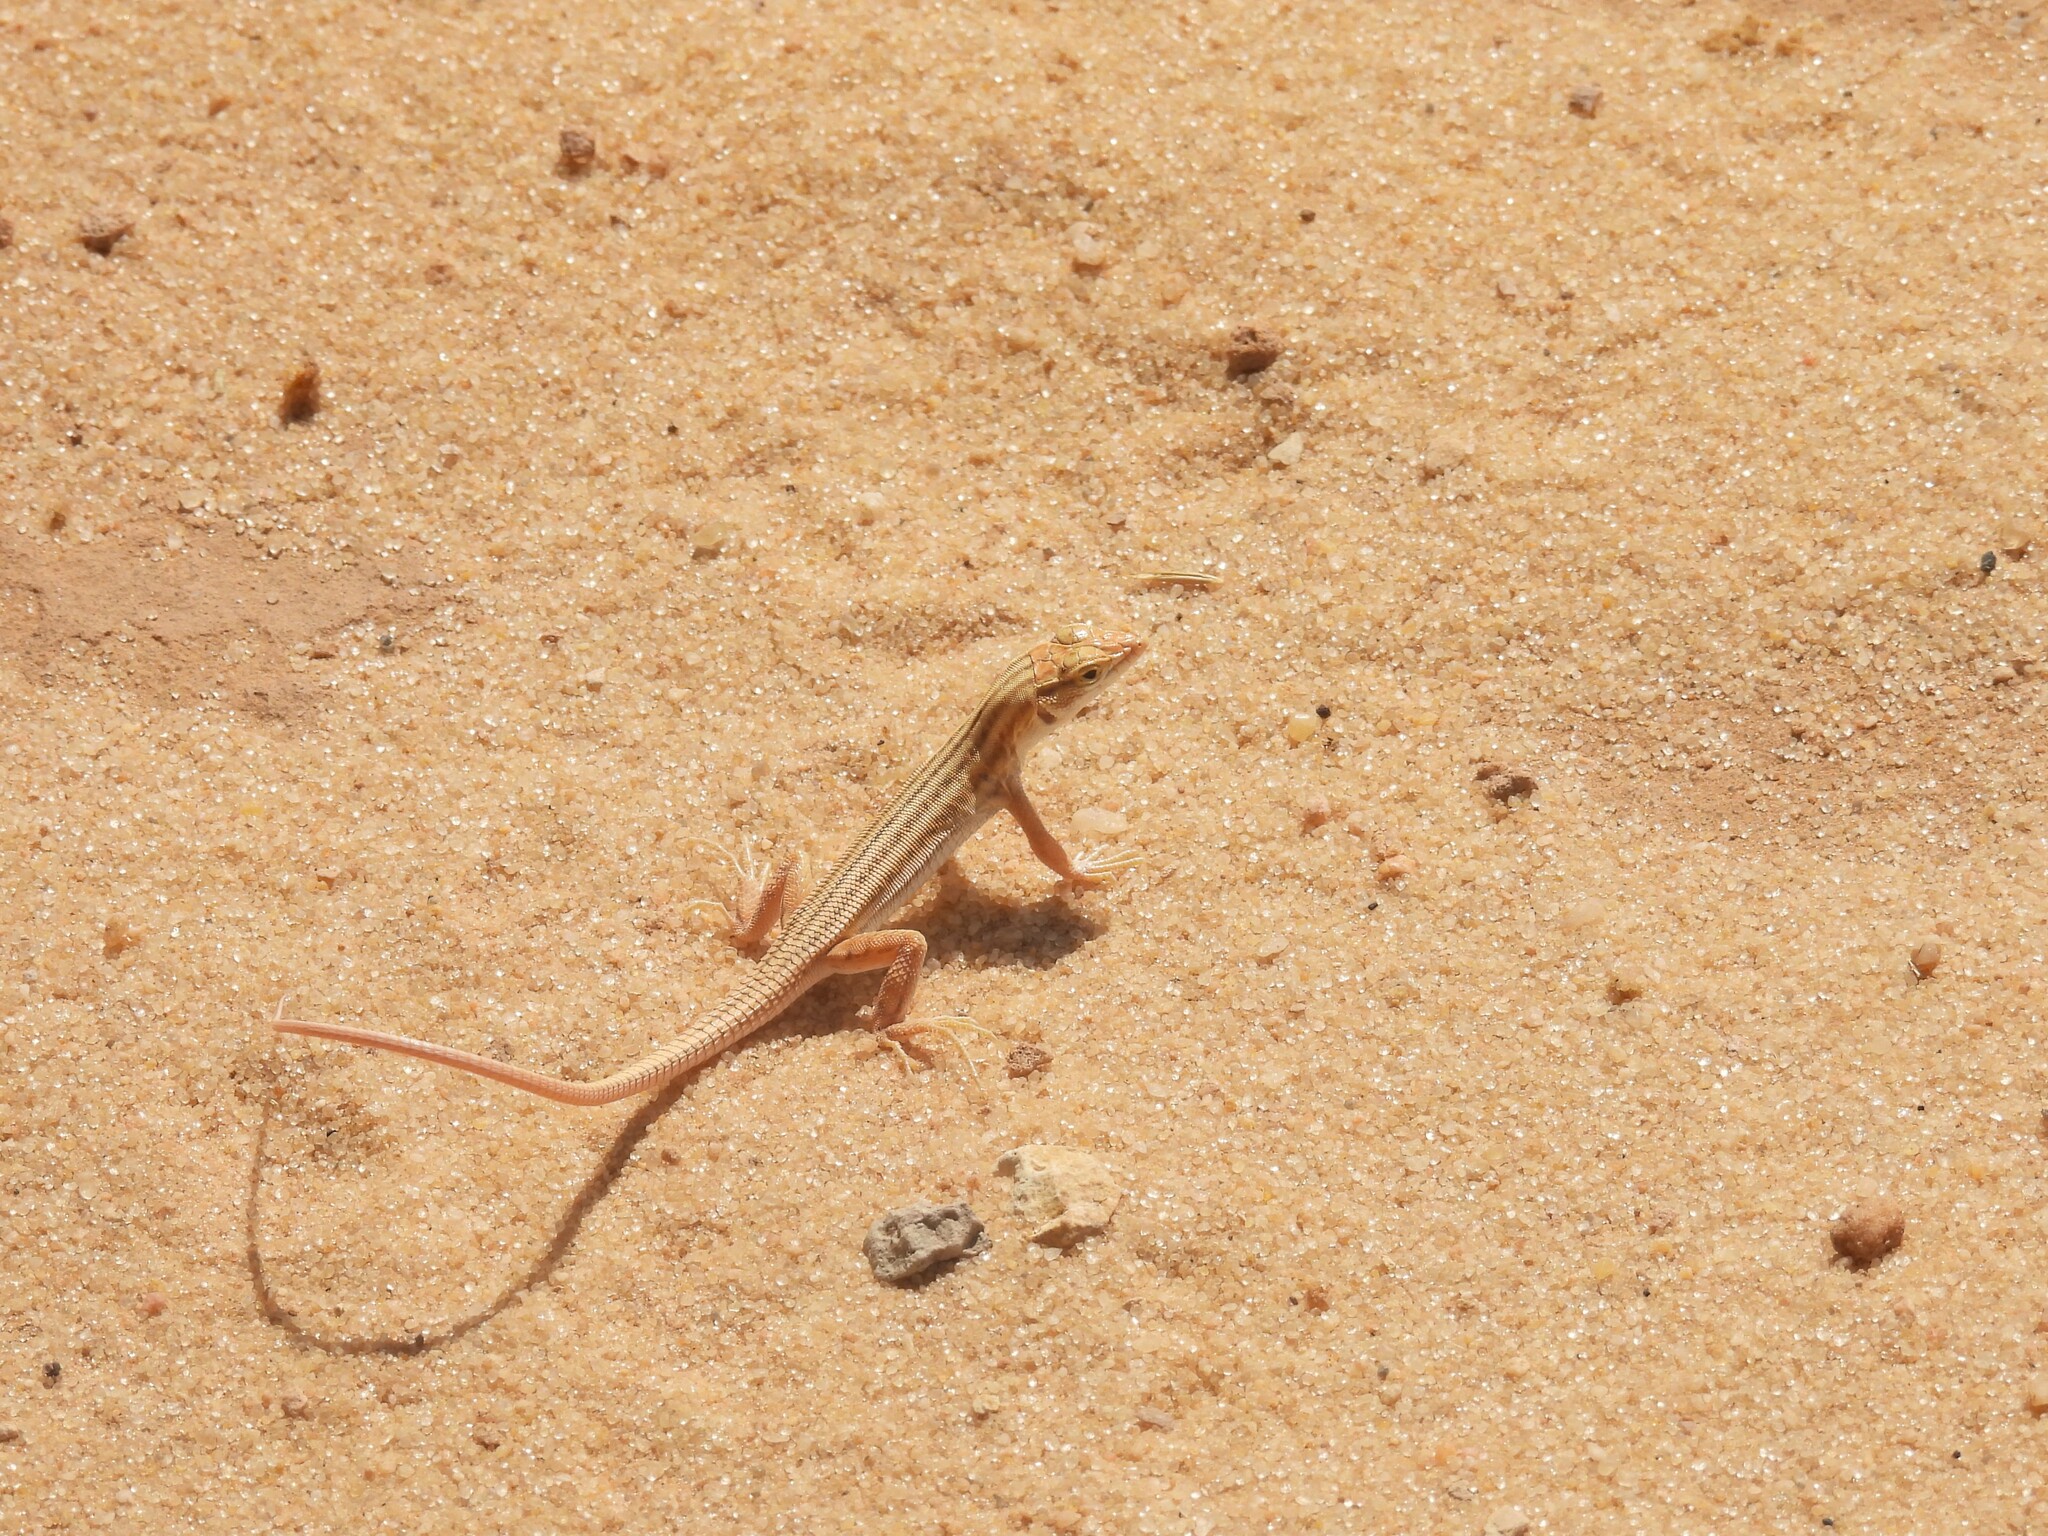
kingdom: Animalia
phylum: Chordata
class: Squamata
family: Lacertidae
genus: Acanthodactylus
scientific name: Acanthodactylus opheodurus
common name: Arnold's fringe-fingered lizard
